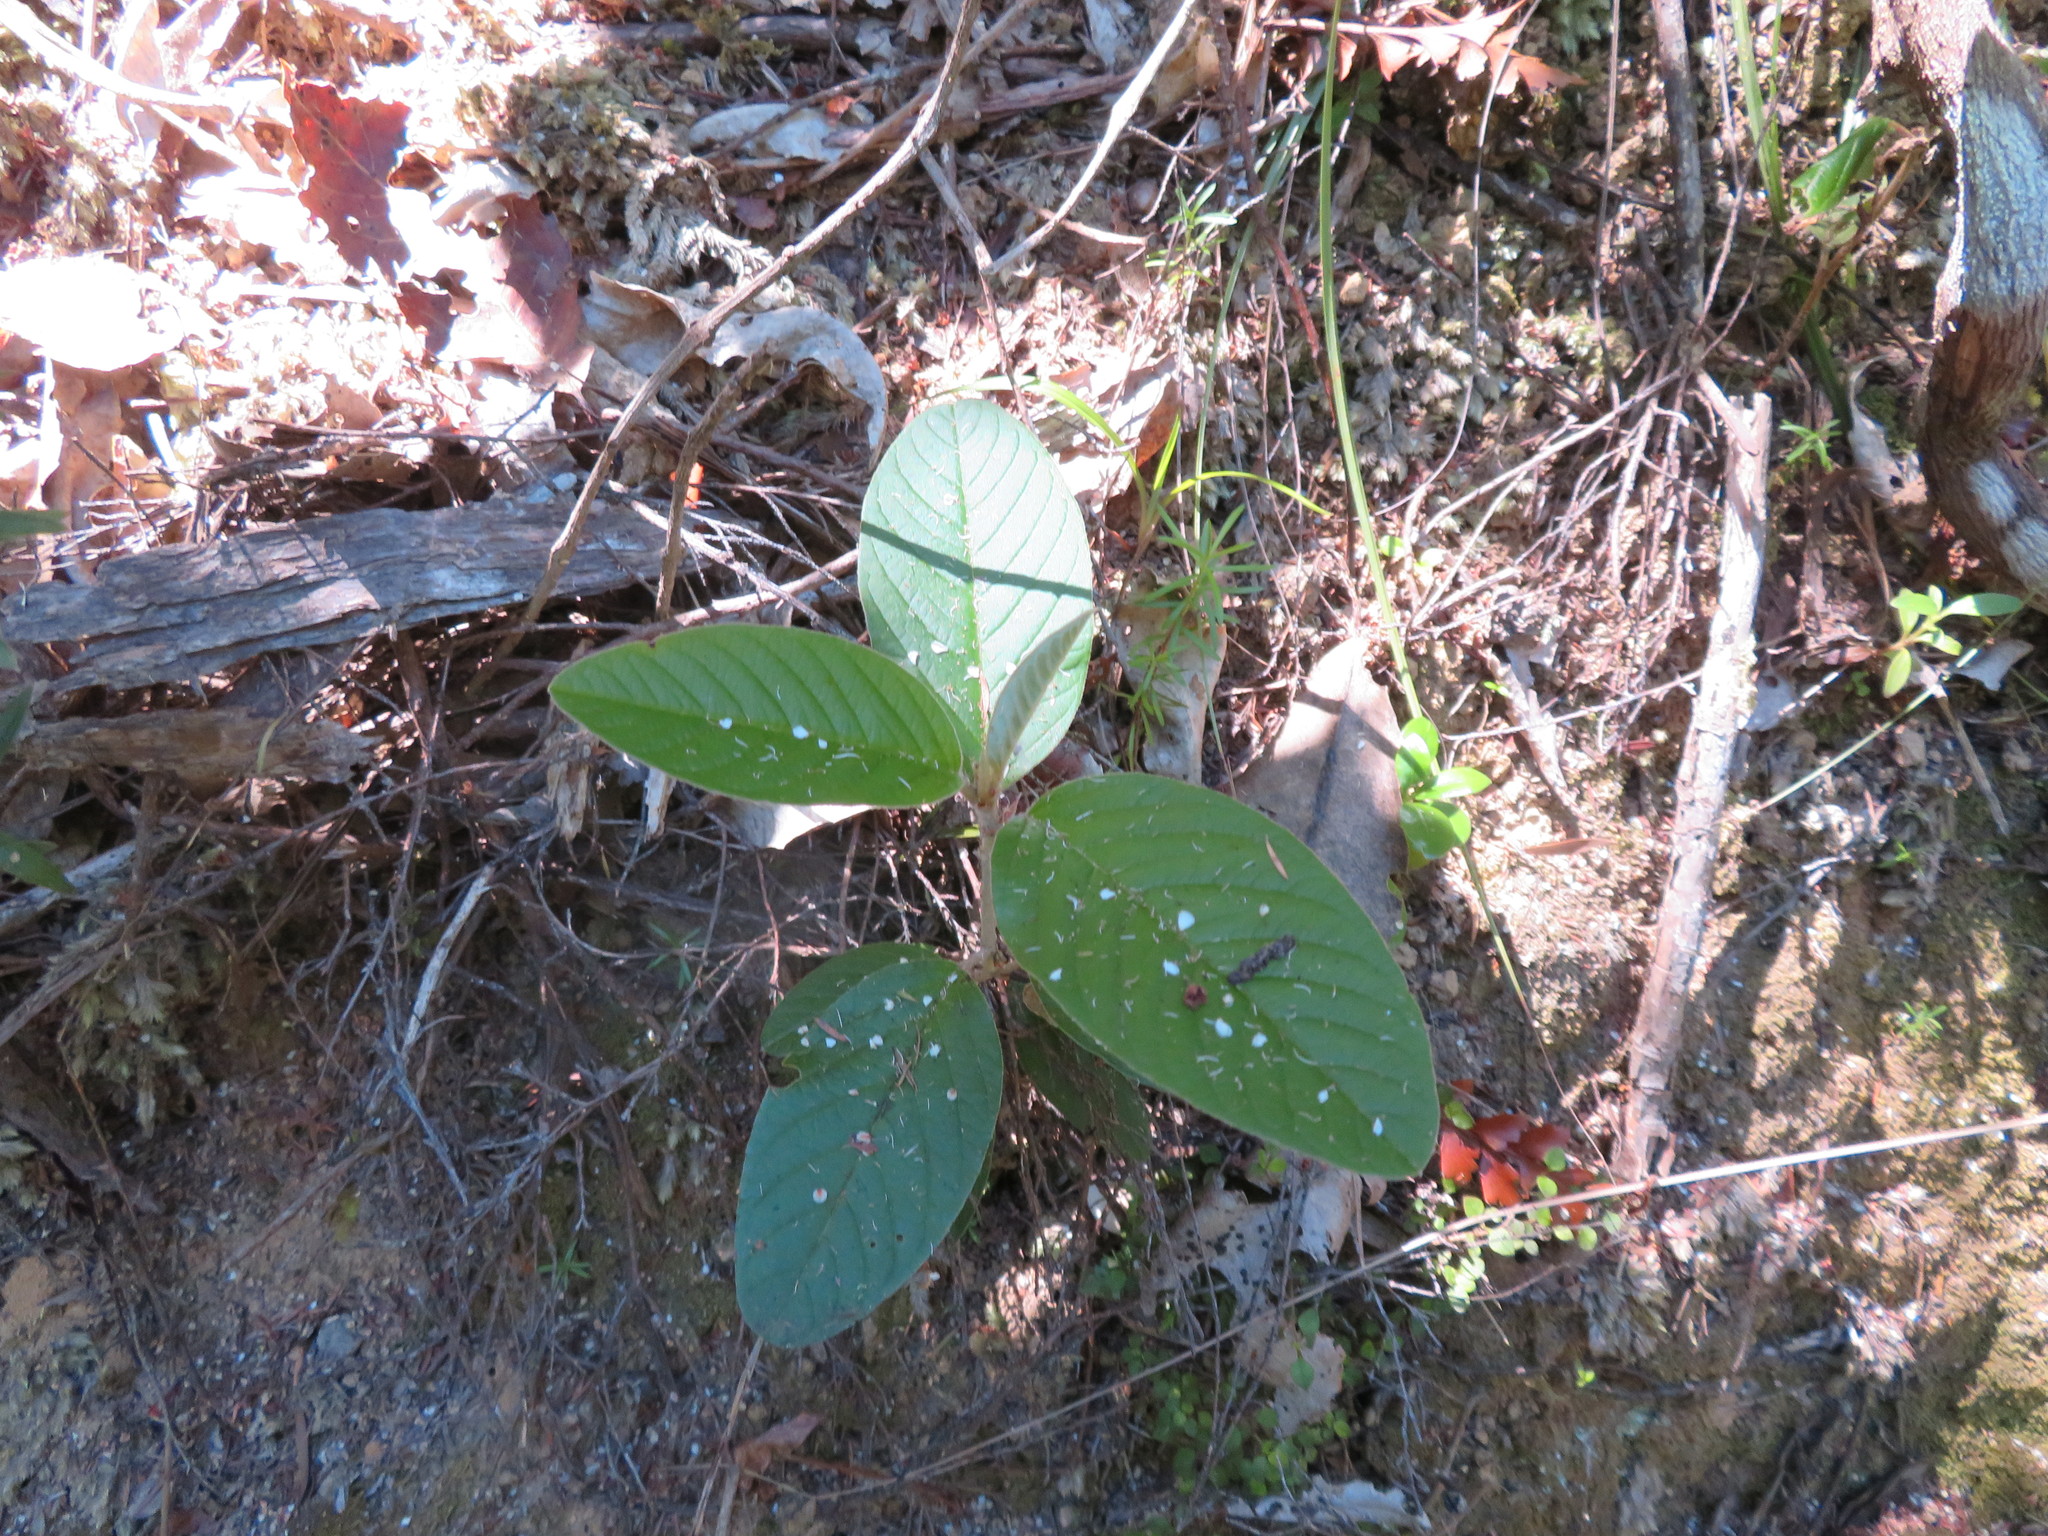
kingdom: Plantae
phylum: Tracheophyta
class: Magnoliopsida
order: Rosales
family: Rhamnaceae
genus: Pomaderris
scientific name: Pomaderris kumeraho
